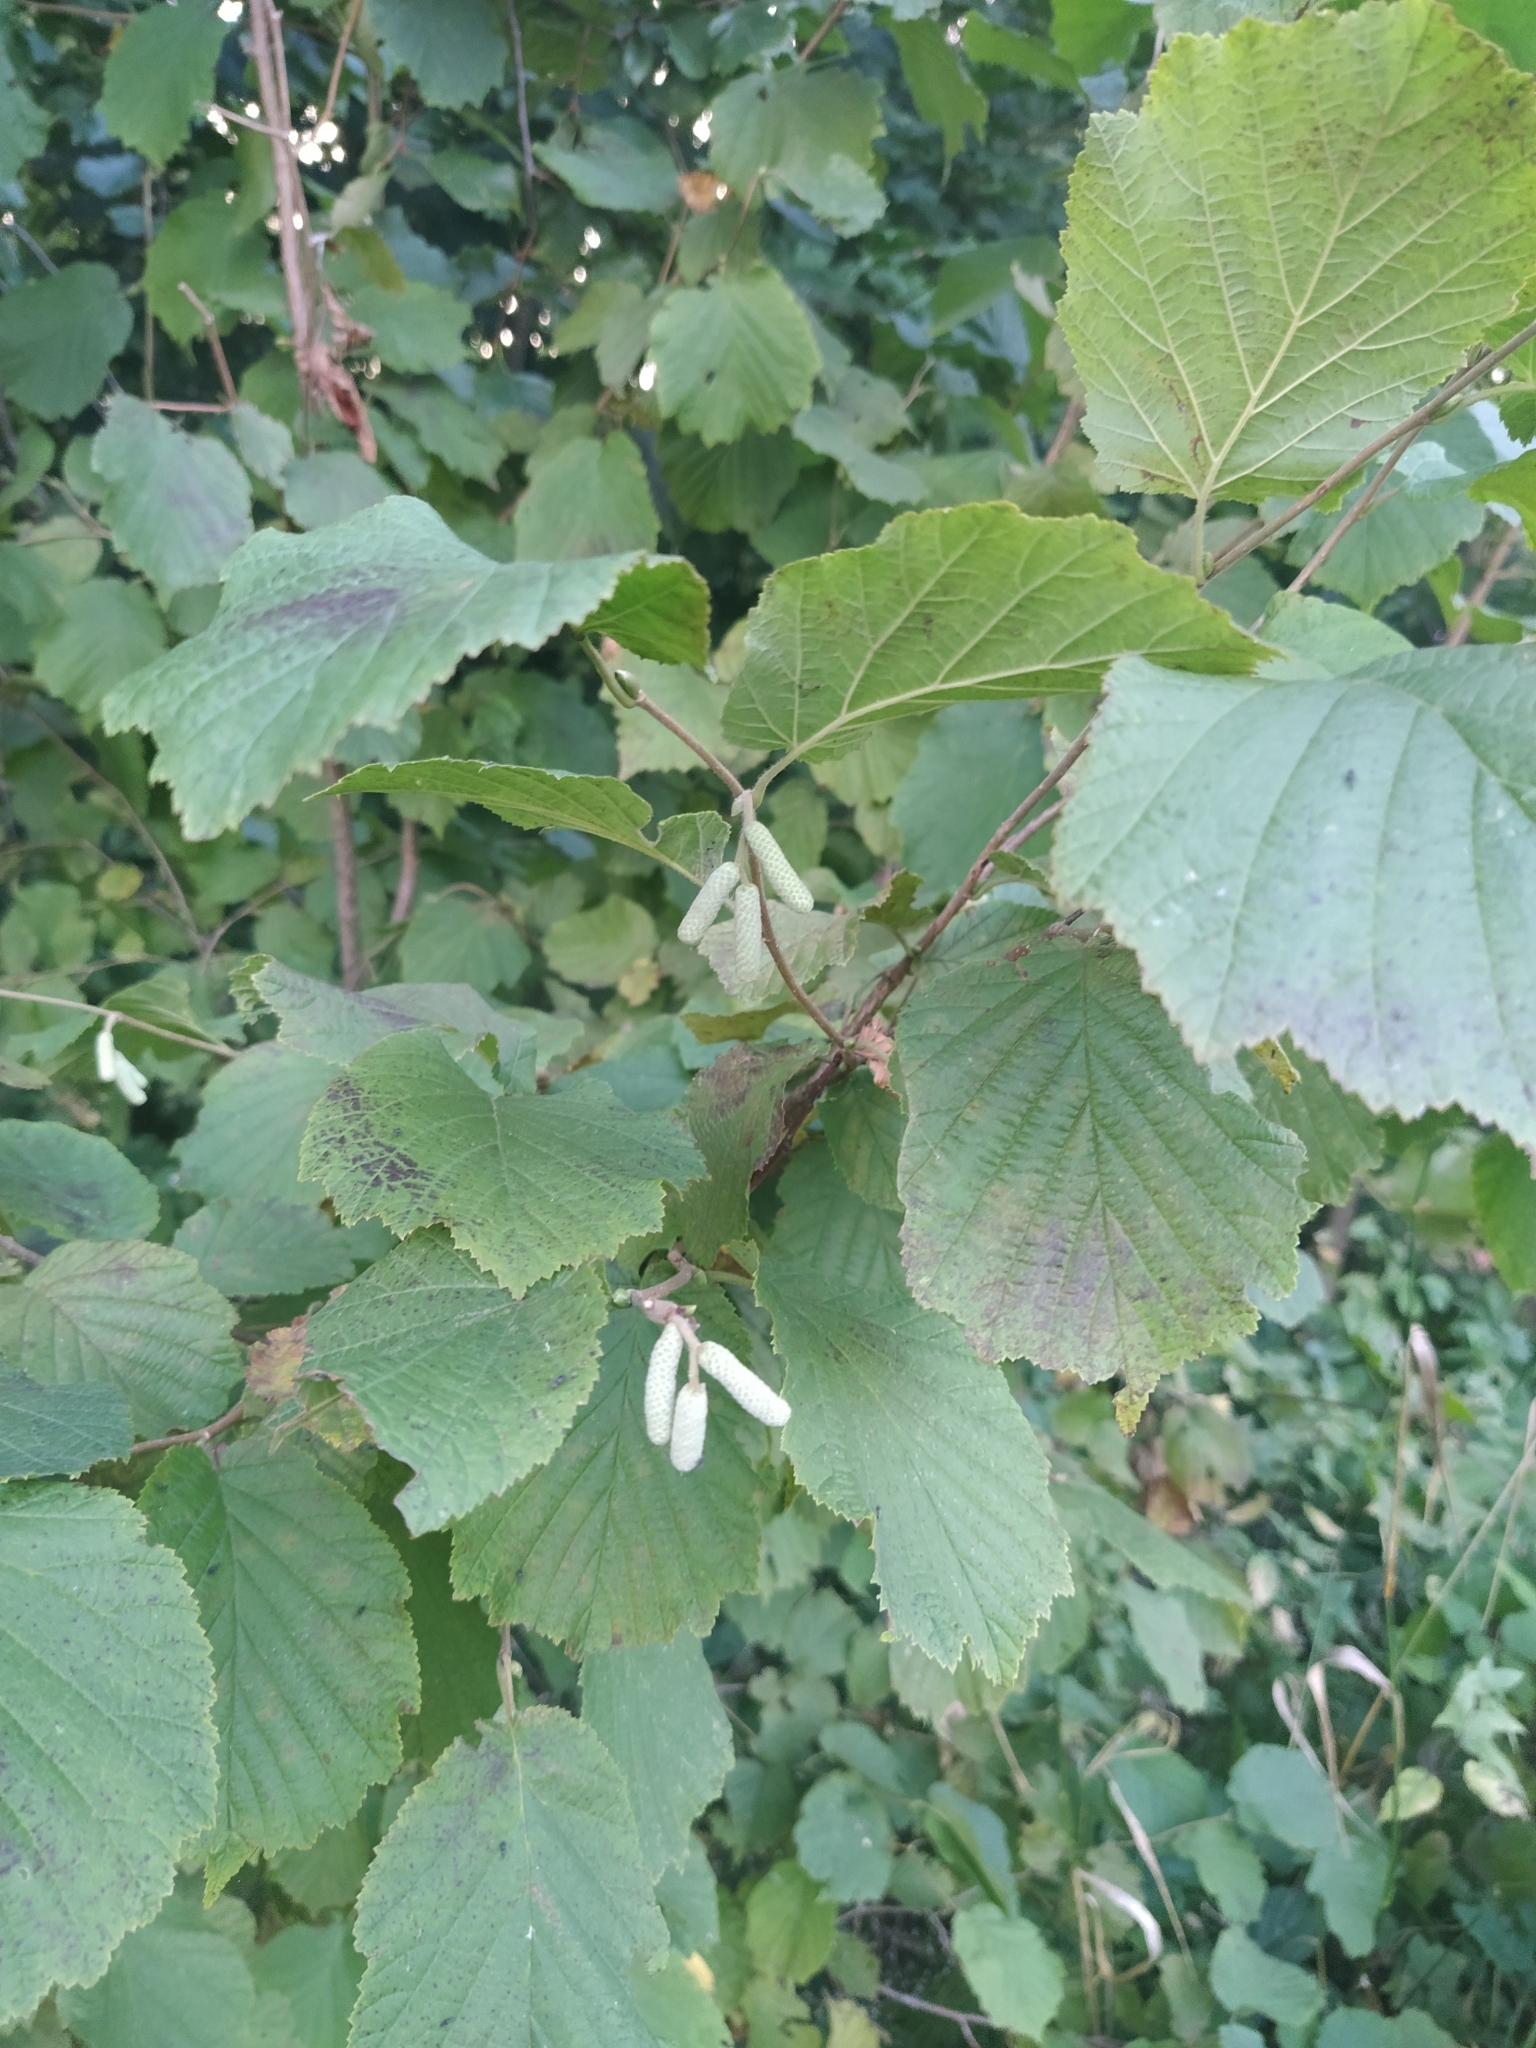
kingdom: Plantae
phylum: Tracheophyta
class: Magnoliopsida
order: Fagales
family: Betulaceae
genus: Corylus
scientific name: Corylus avellana
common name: European hazel
